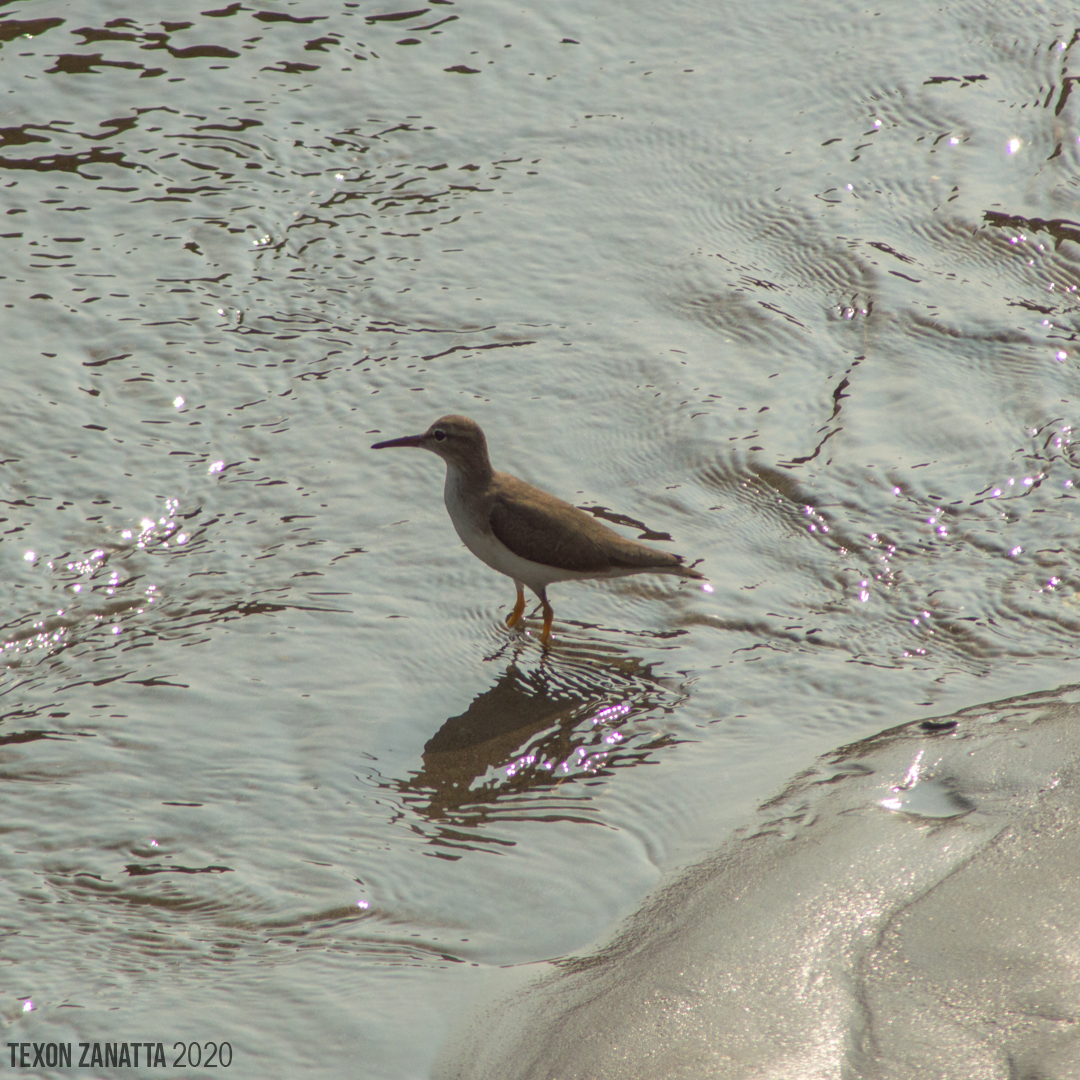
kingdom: Animalia
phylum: Chordata
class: Aves
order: Charadriiformes
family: Scolopacidae
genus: Actitis
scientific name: Actitis macularius
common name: Spotted sandpiper
